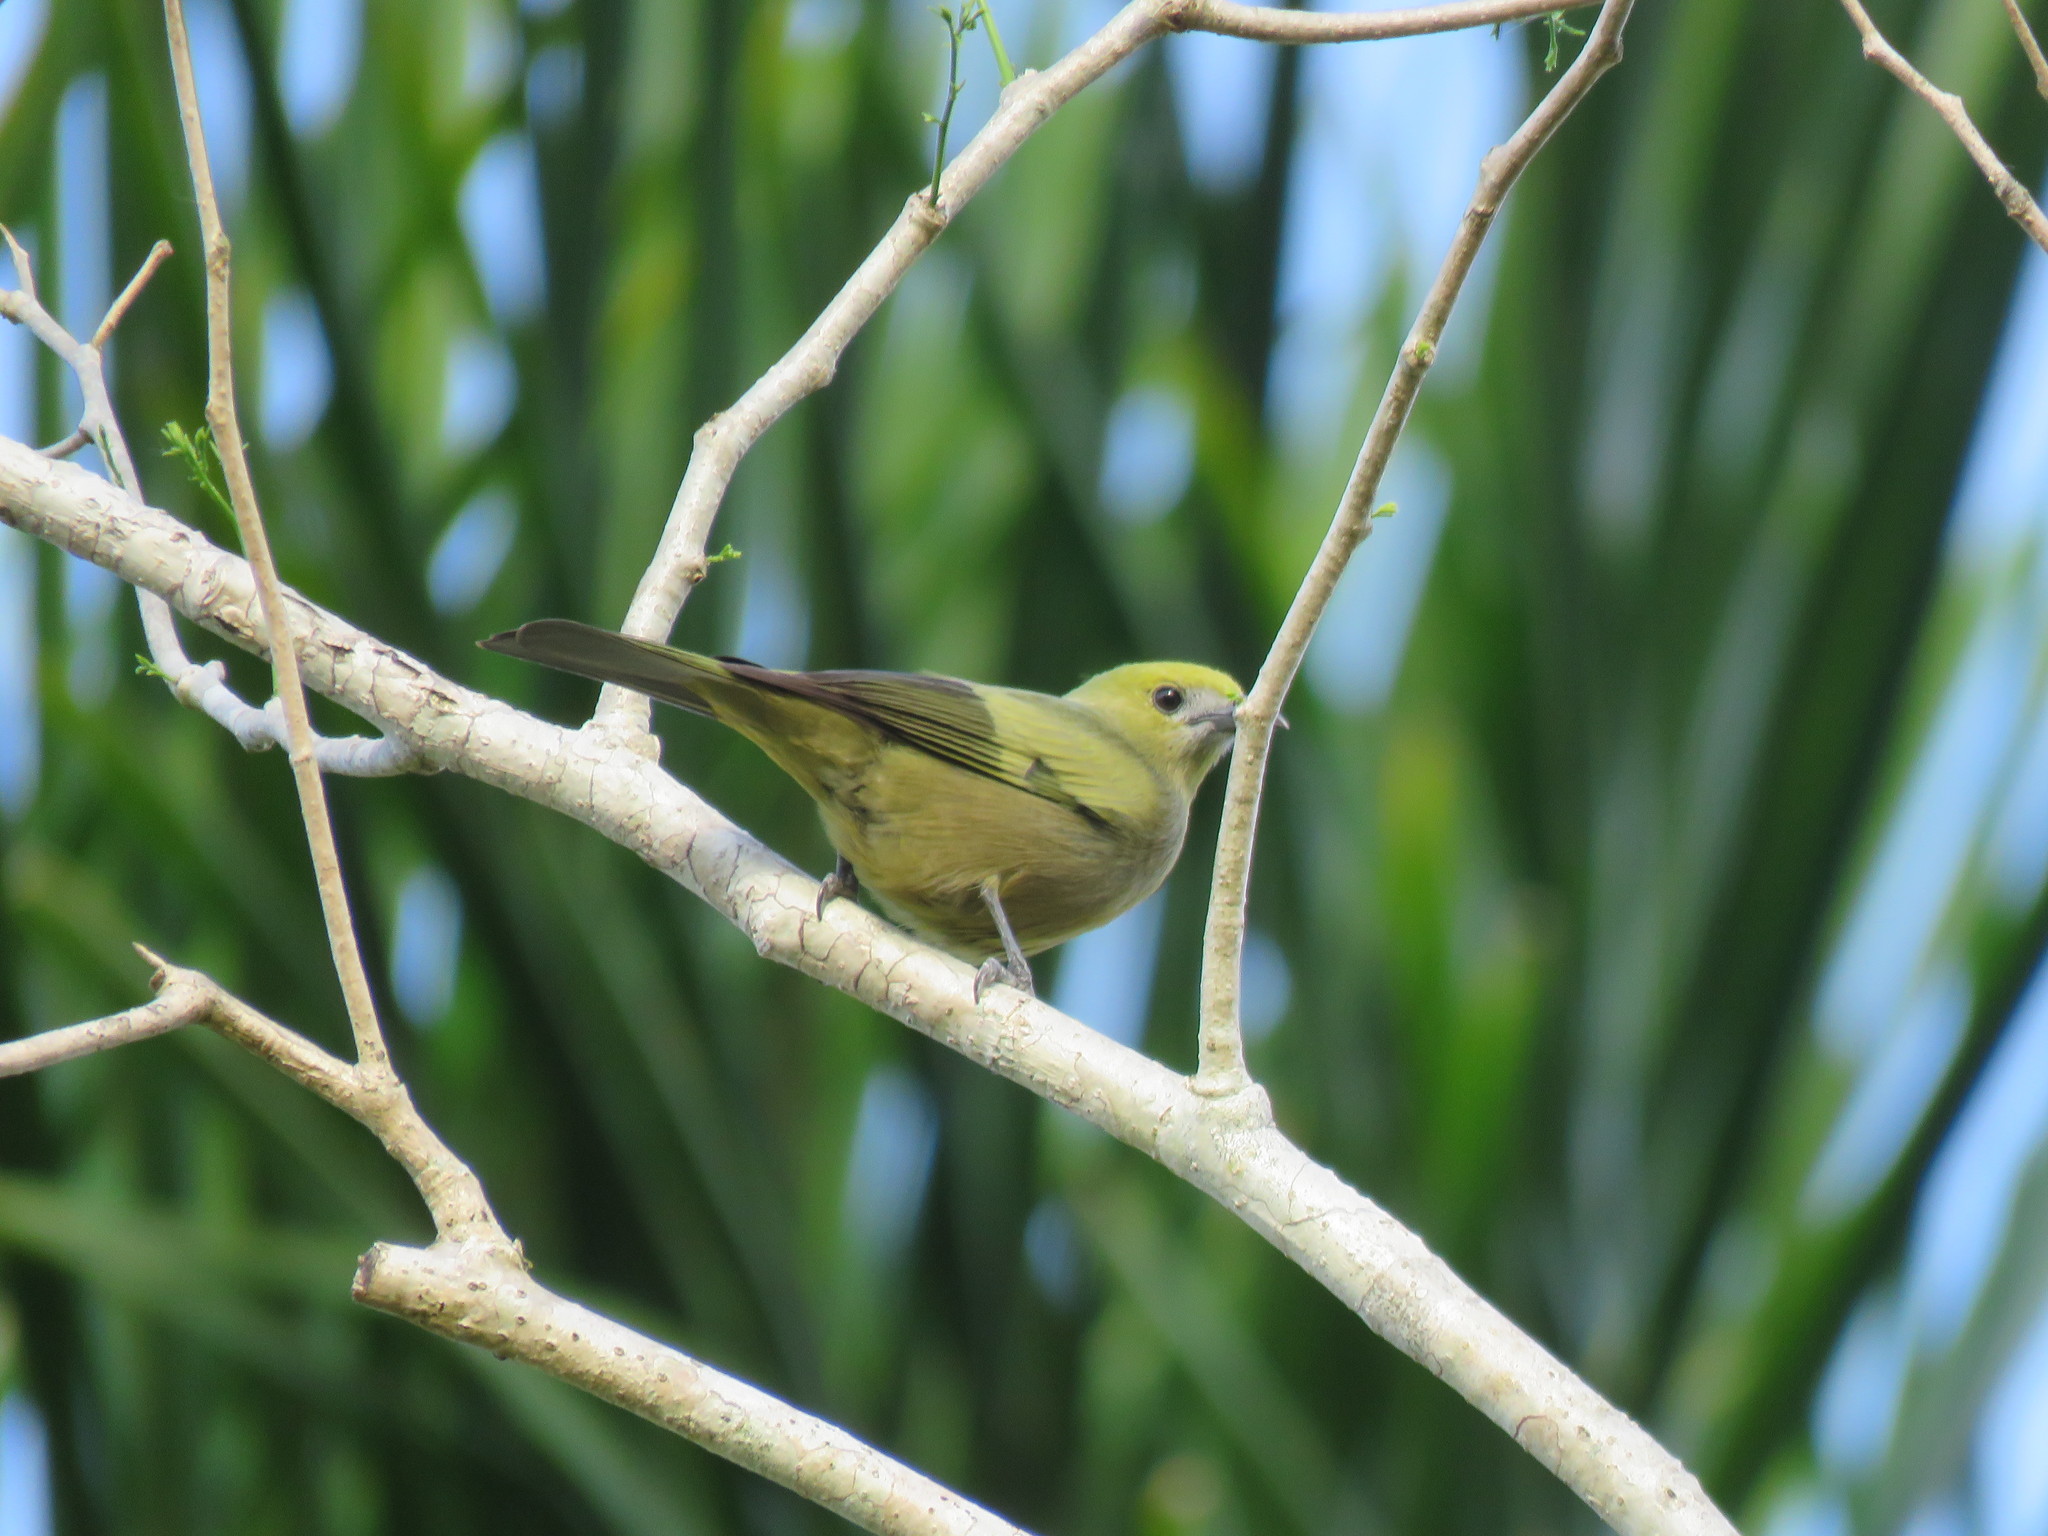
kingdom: Animalia
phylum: Chordata
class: Aves
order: Passeriformes
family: Thraupidae
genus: Thraupis
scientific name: Thraupis palmarum
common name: Palm tanager
